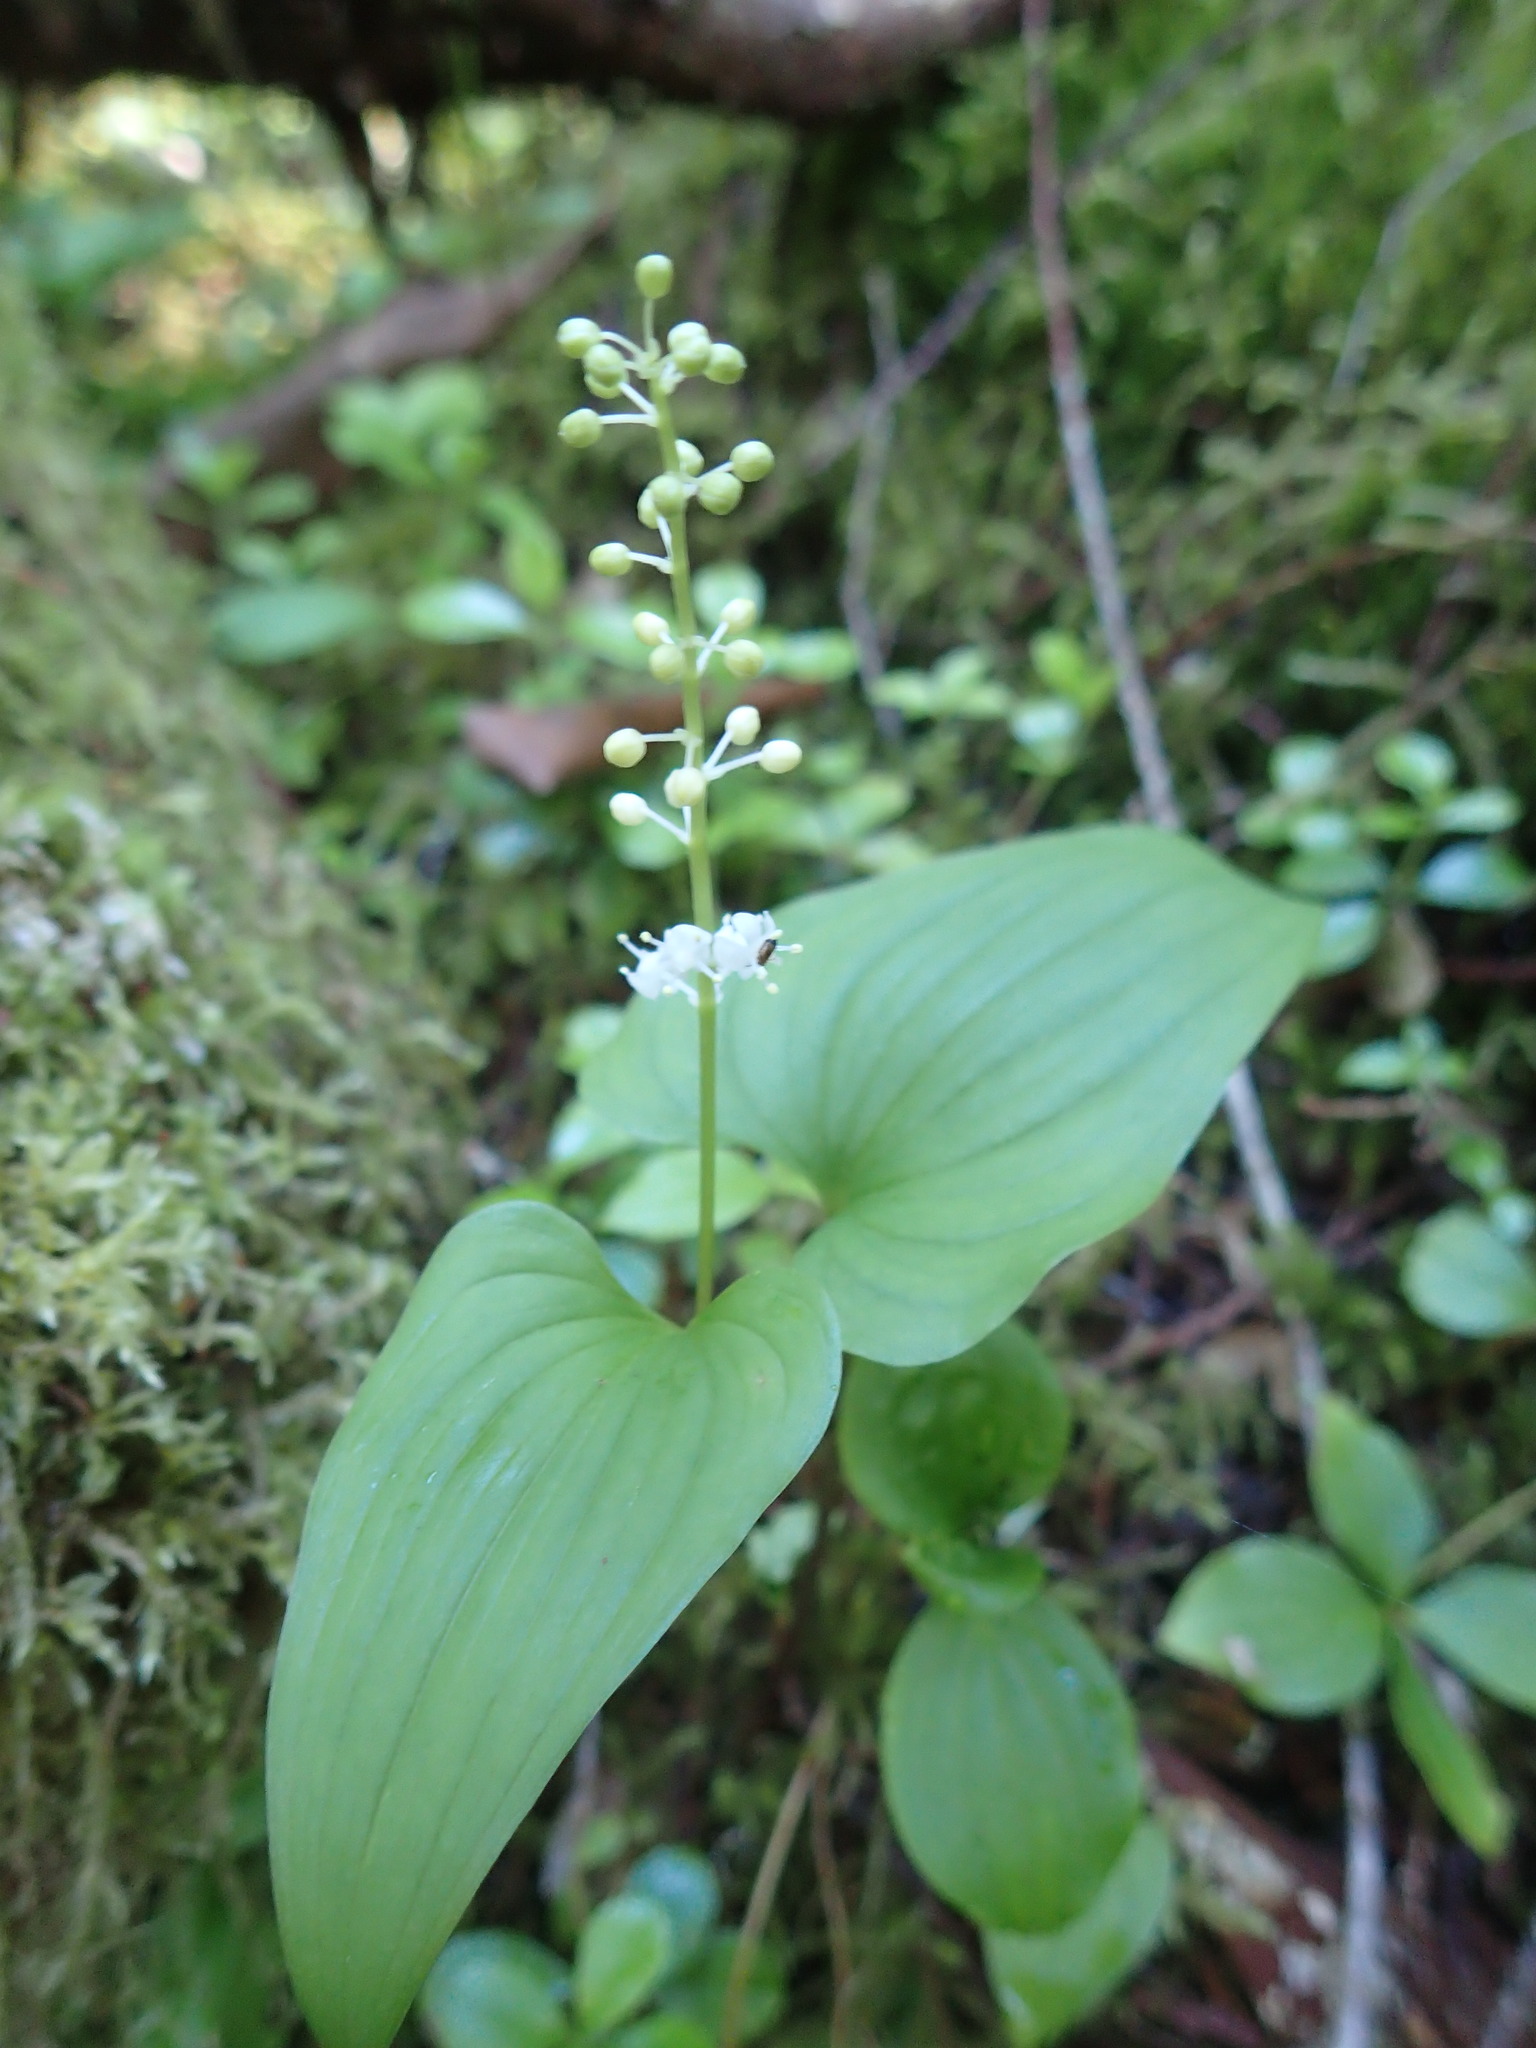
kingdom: Plantae
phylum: Tracheophyta
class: Liliopsida
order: Asparagales
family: Asparagaceae
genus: Maianthemum
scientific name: Maianthemum dilatatum
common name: False lily-of-the-valley
